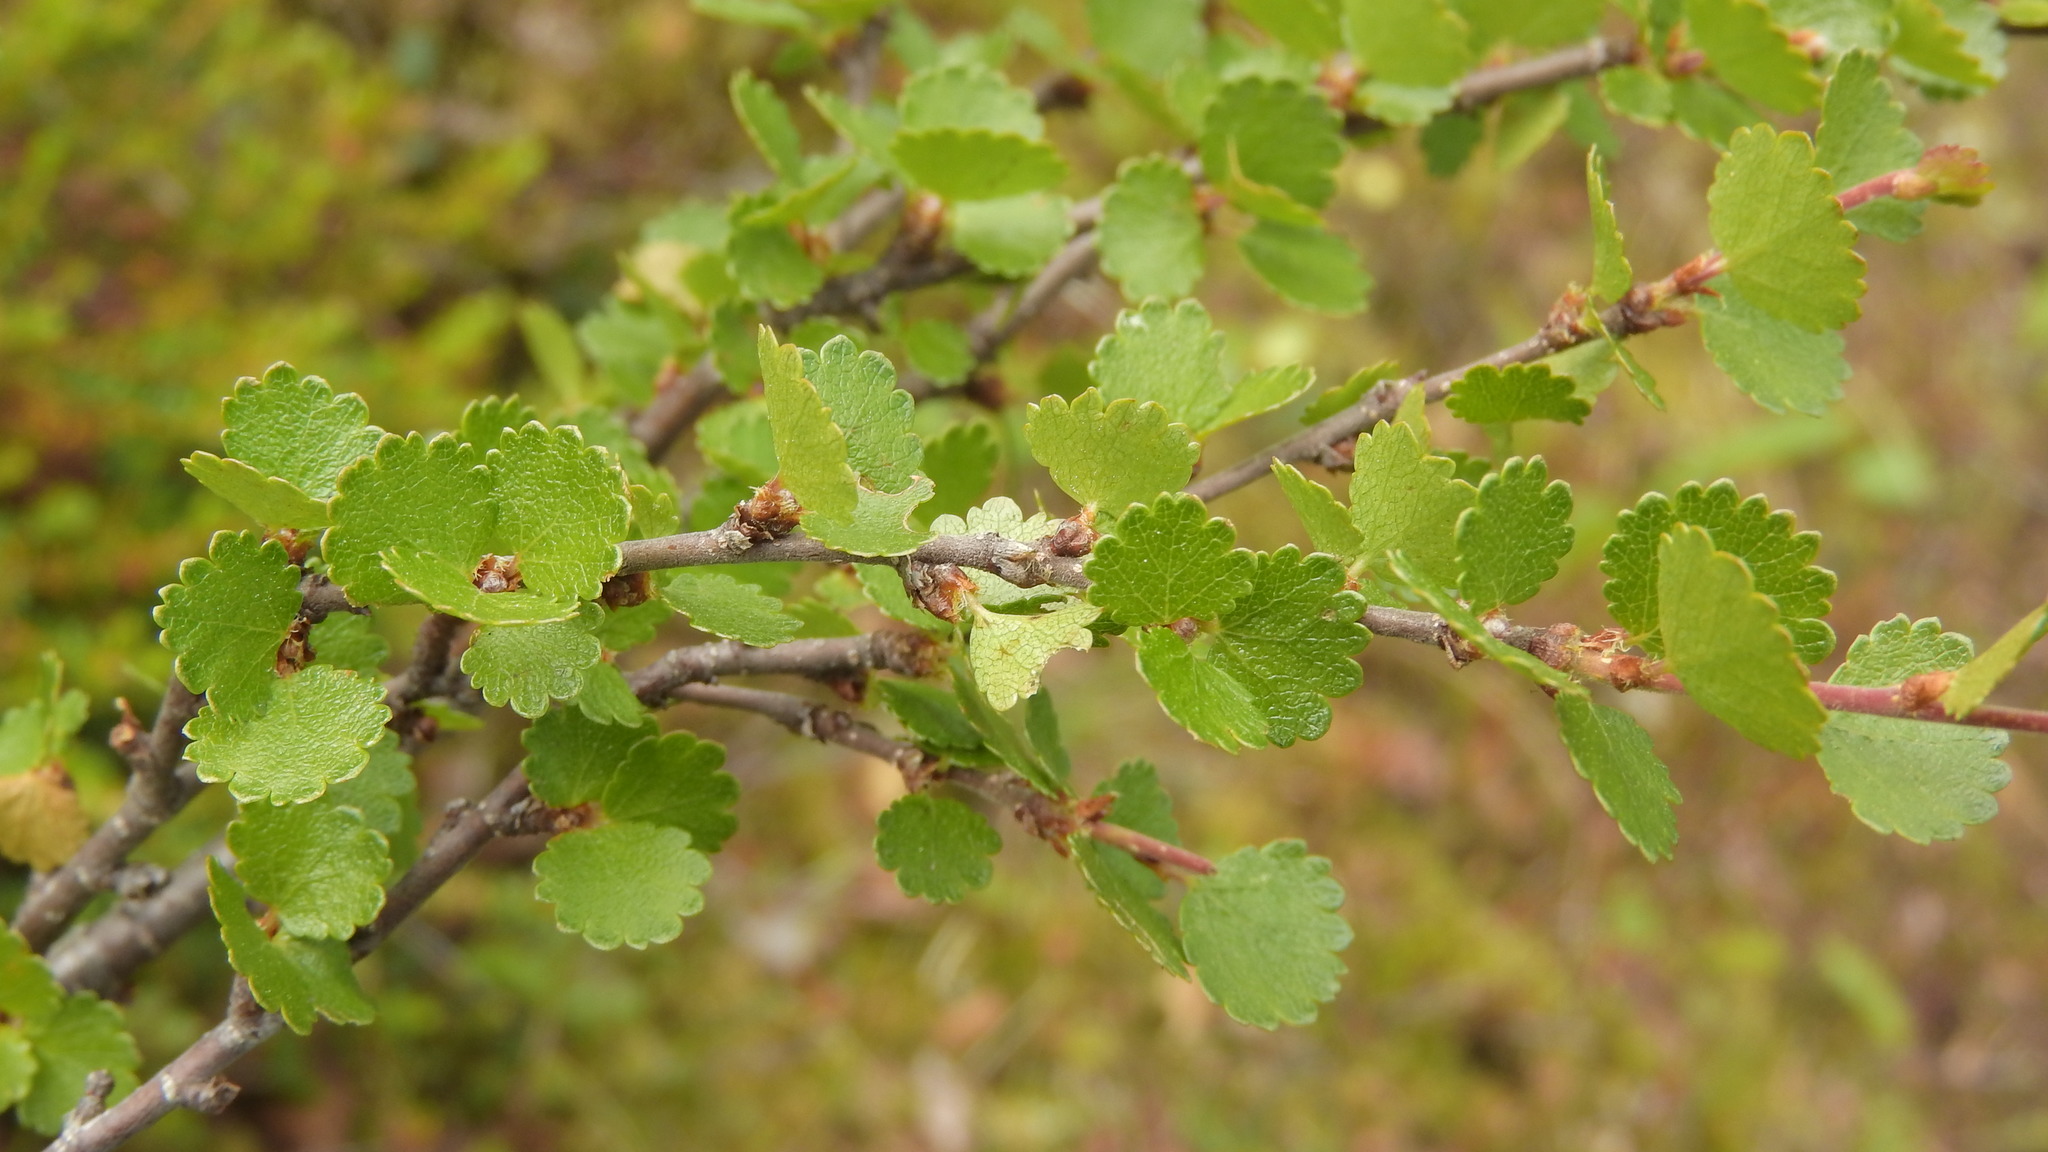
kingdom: Plantae
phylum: Tracheophyta
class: Magnoliopsida
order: Fagales
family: Betulaceae
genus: Betula
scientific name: Betula nana
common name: Arctic dwarf birch
